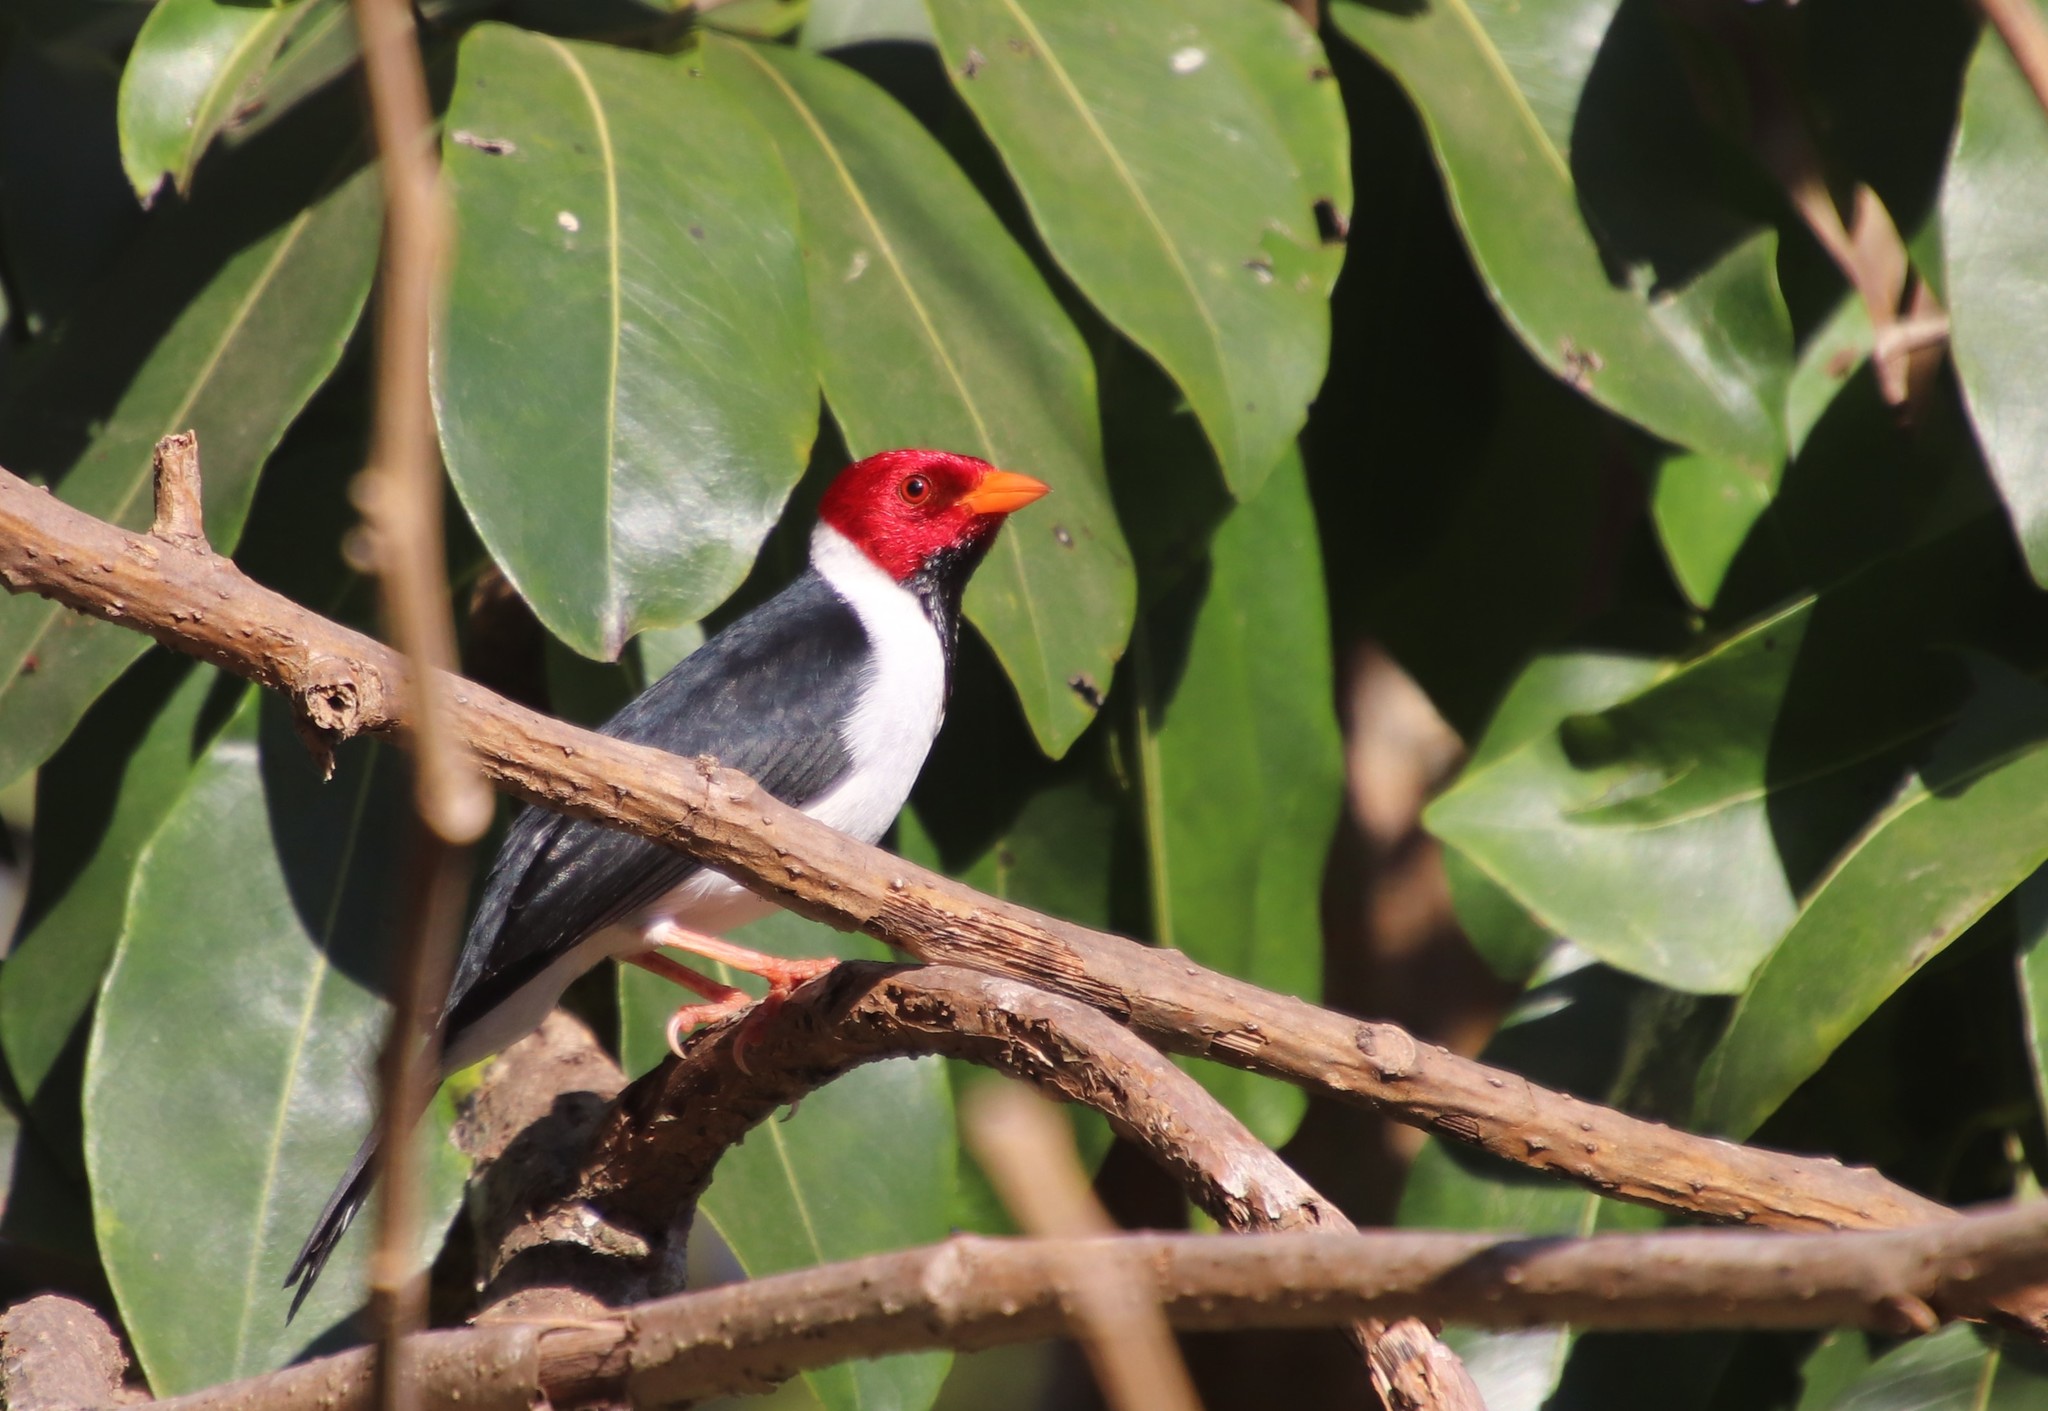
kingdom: Animalia
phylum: Chordata
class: Aves
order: Passeriformes
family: Thraupidae
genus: Paroaria
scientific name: Paroaria capitata
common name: Yellow-billed cardinal
